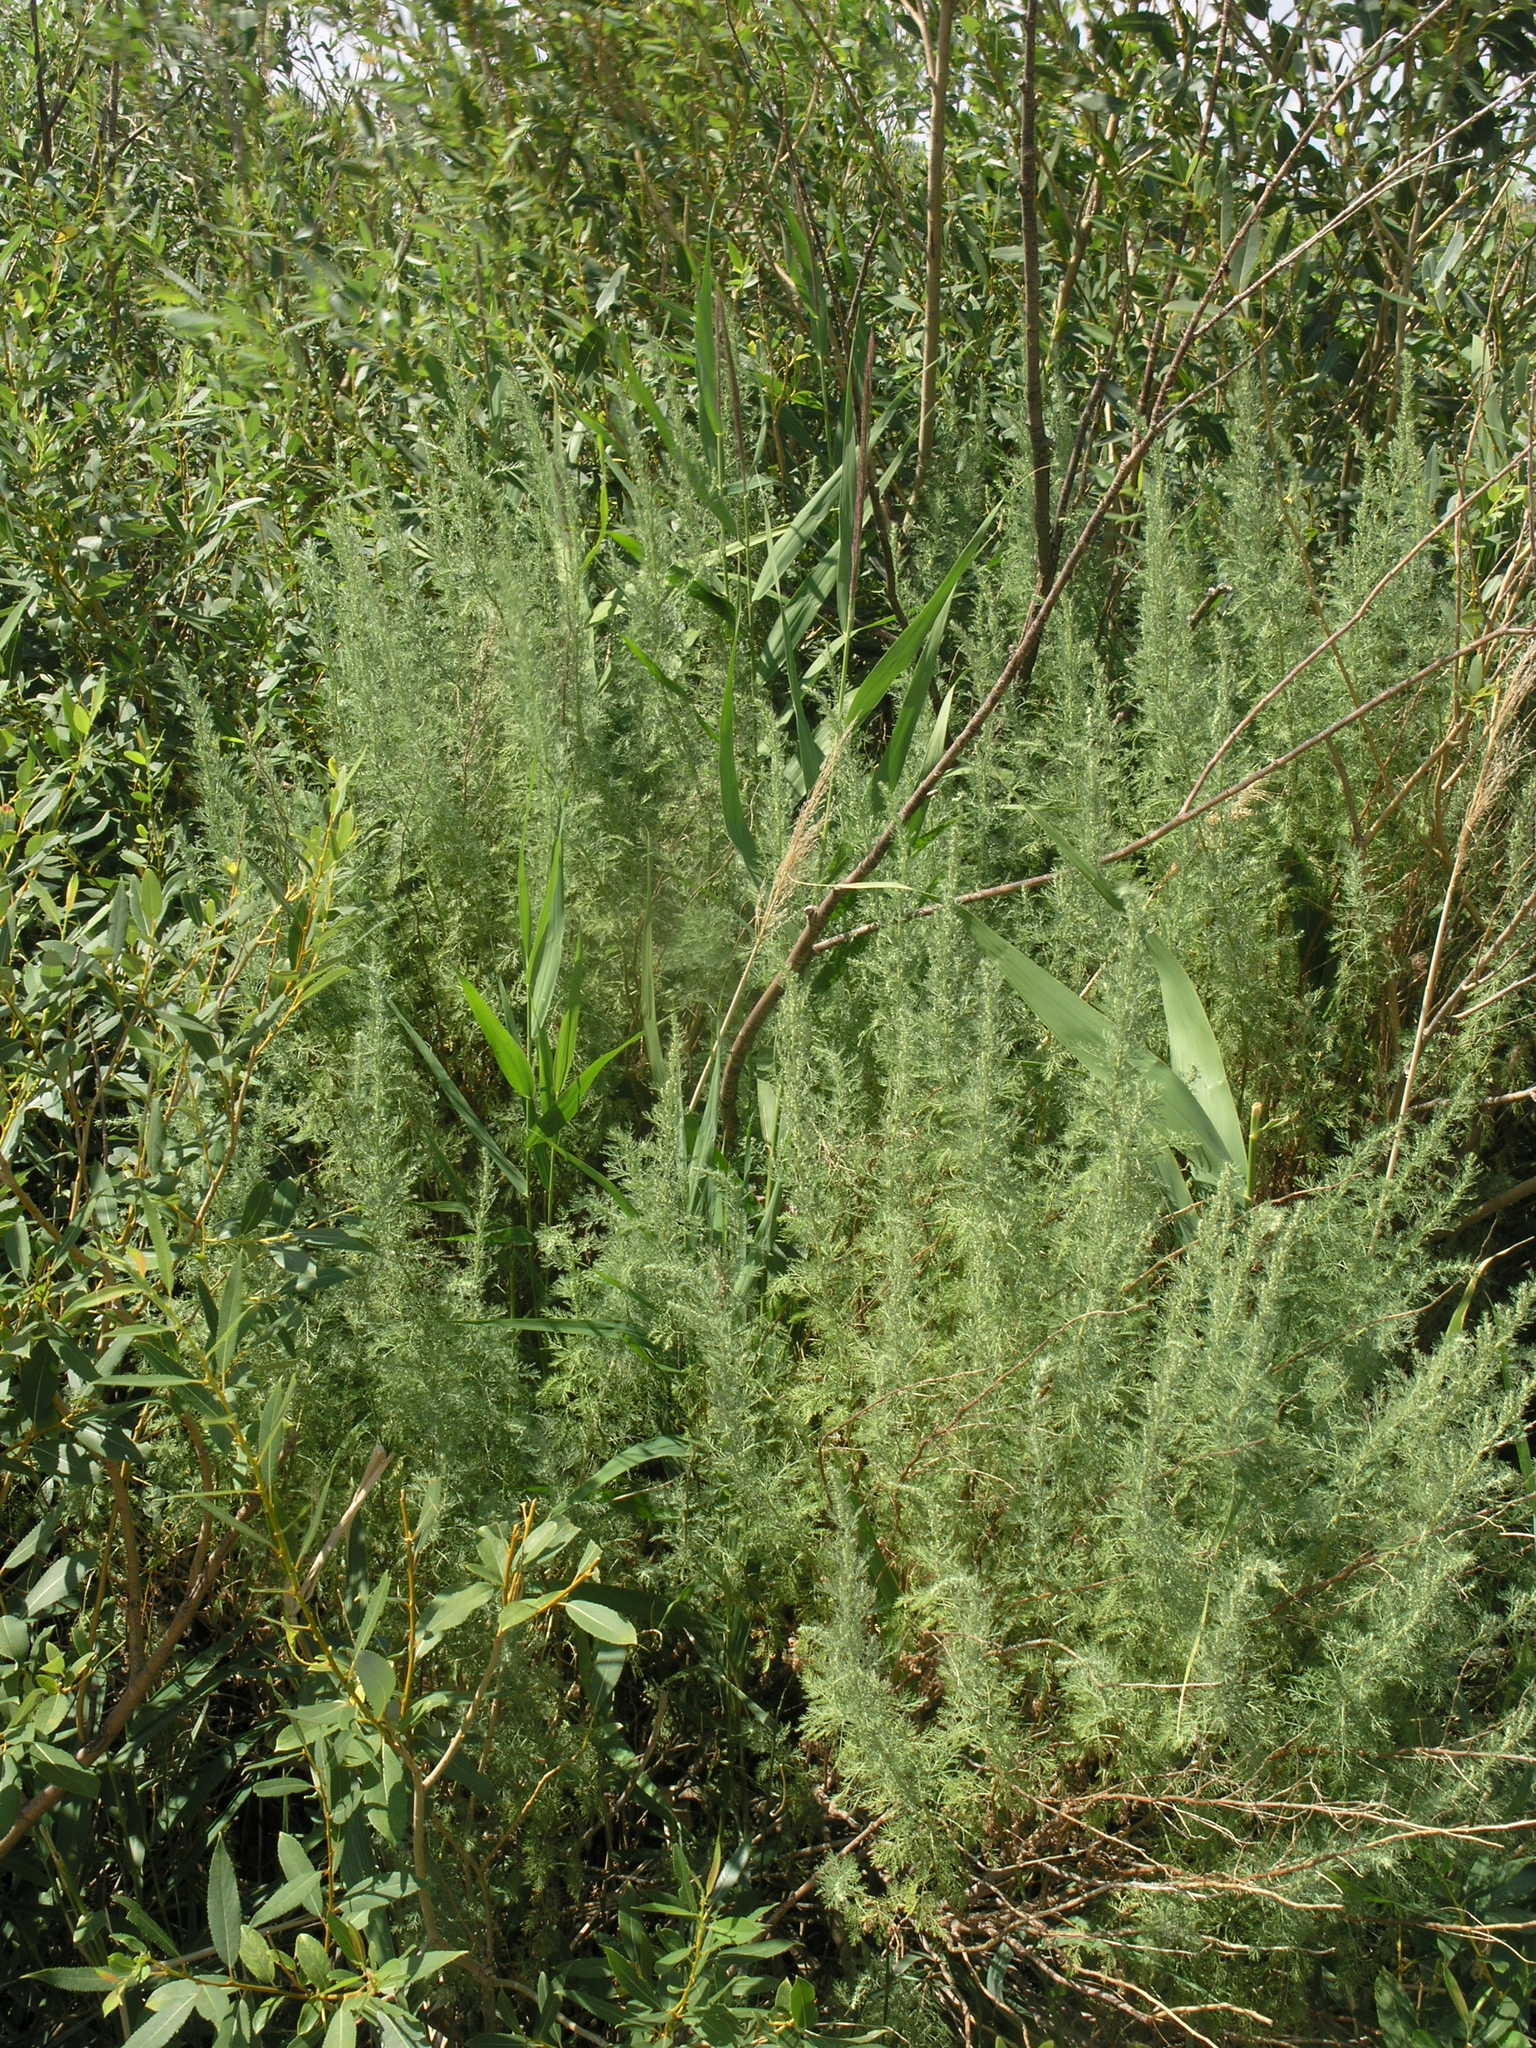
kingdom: Plantae
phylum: Tracheophyta
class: Magnoliopsida
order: Asterales
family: Asteraceae
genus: Artemisia
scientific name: Artemisia abrotanum
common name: Southernwood
